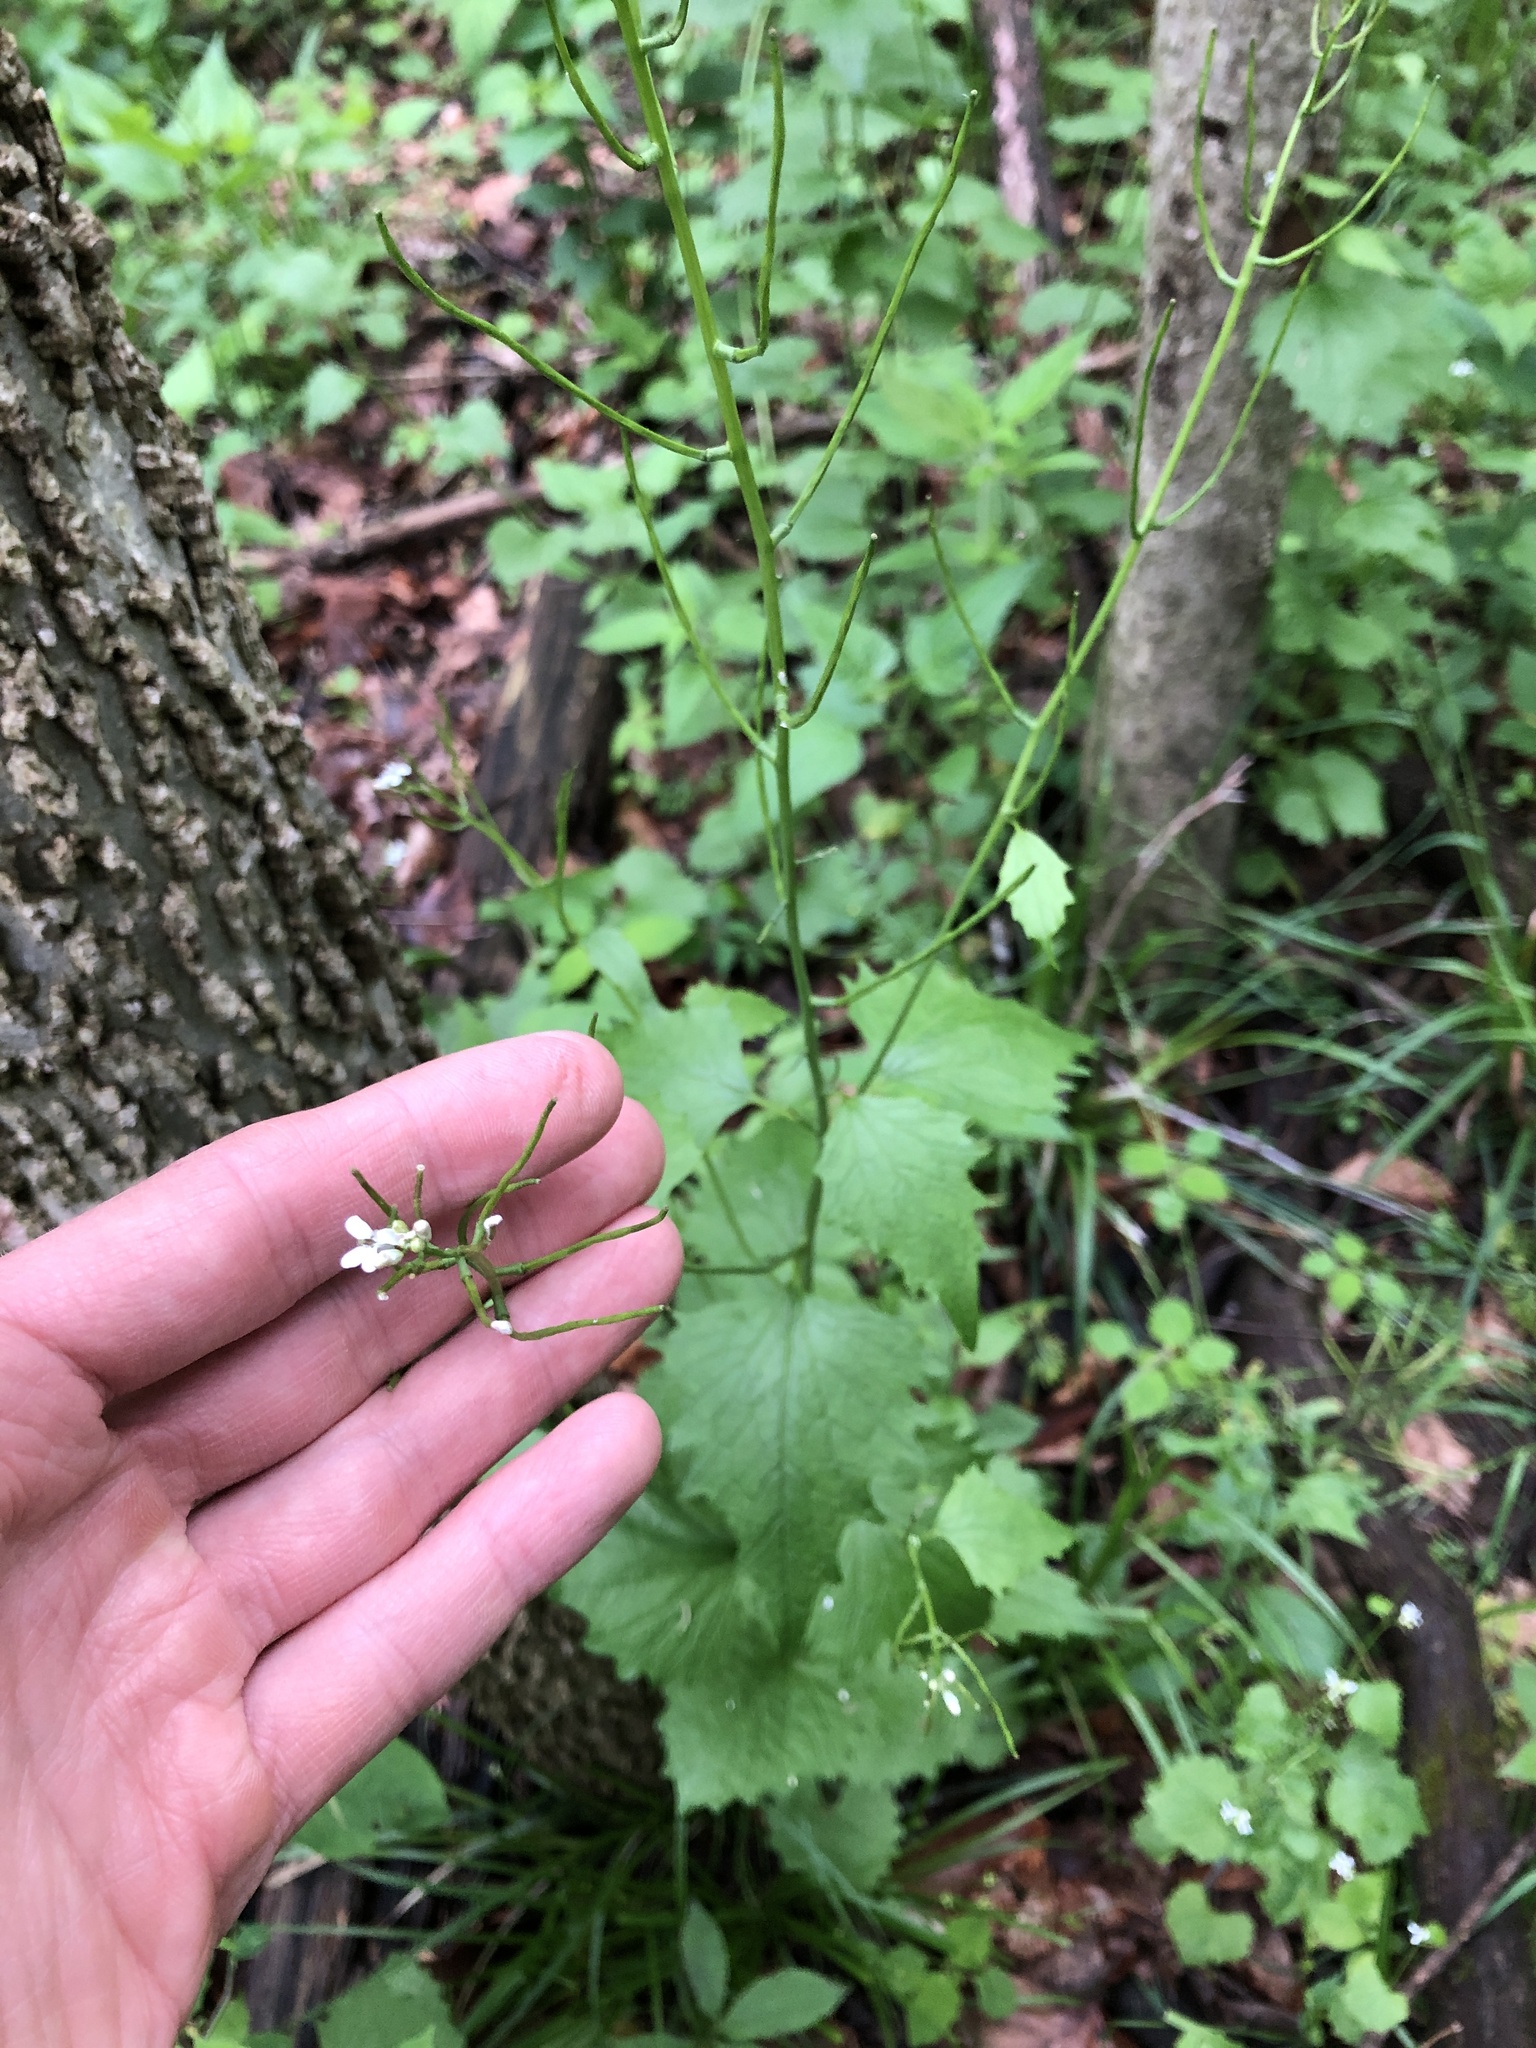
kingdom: Plantae
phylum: Tracheophyta
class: Magnoliopsida
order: Brassicales
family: Brassicaceae
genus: Alliaria
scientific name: Alliaria petiolata
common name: Garlic mustard
